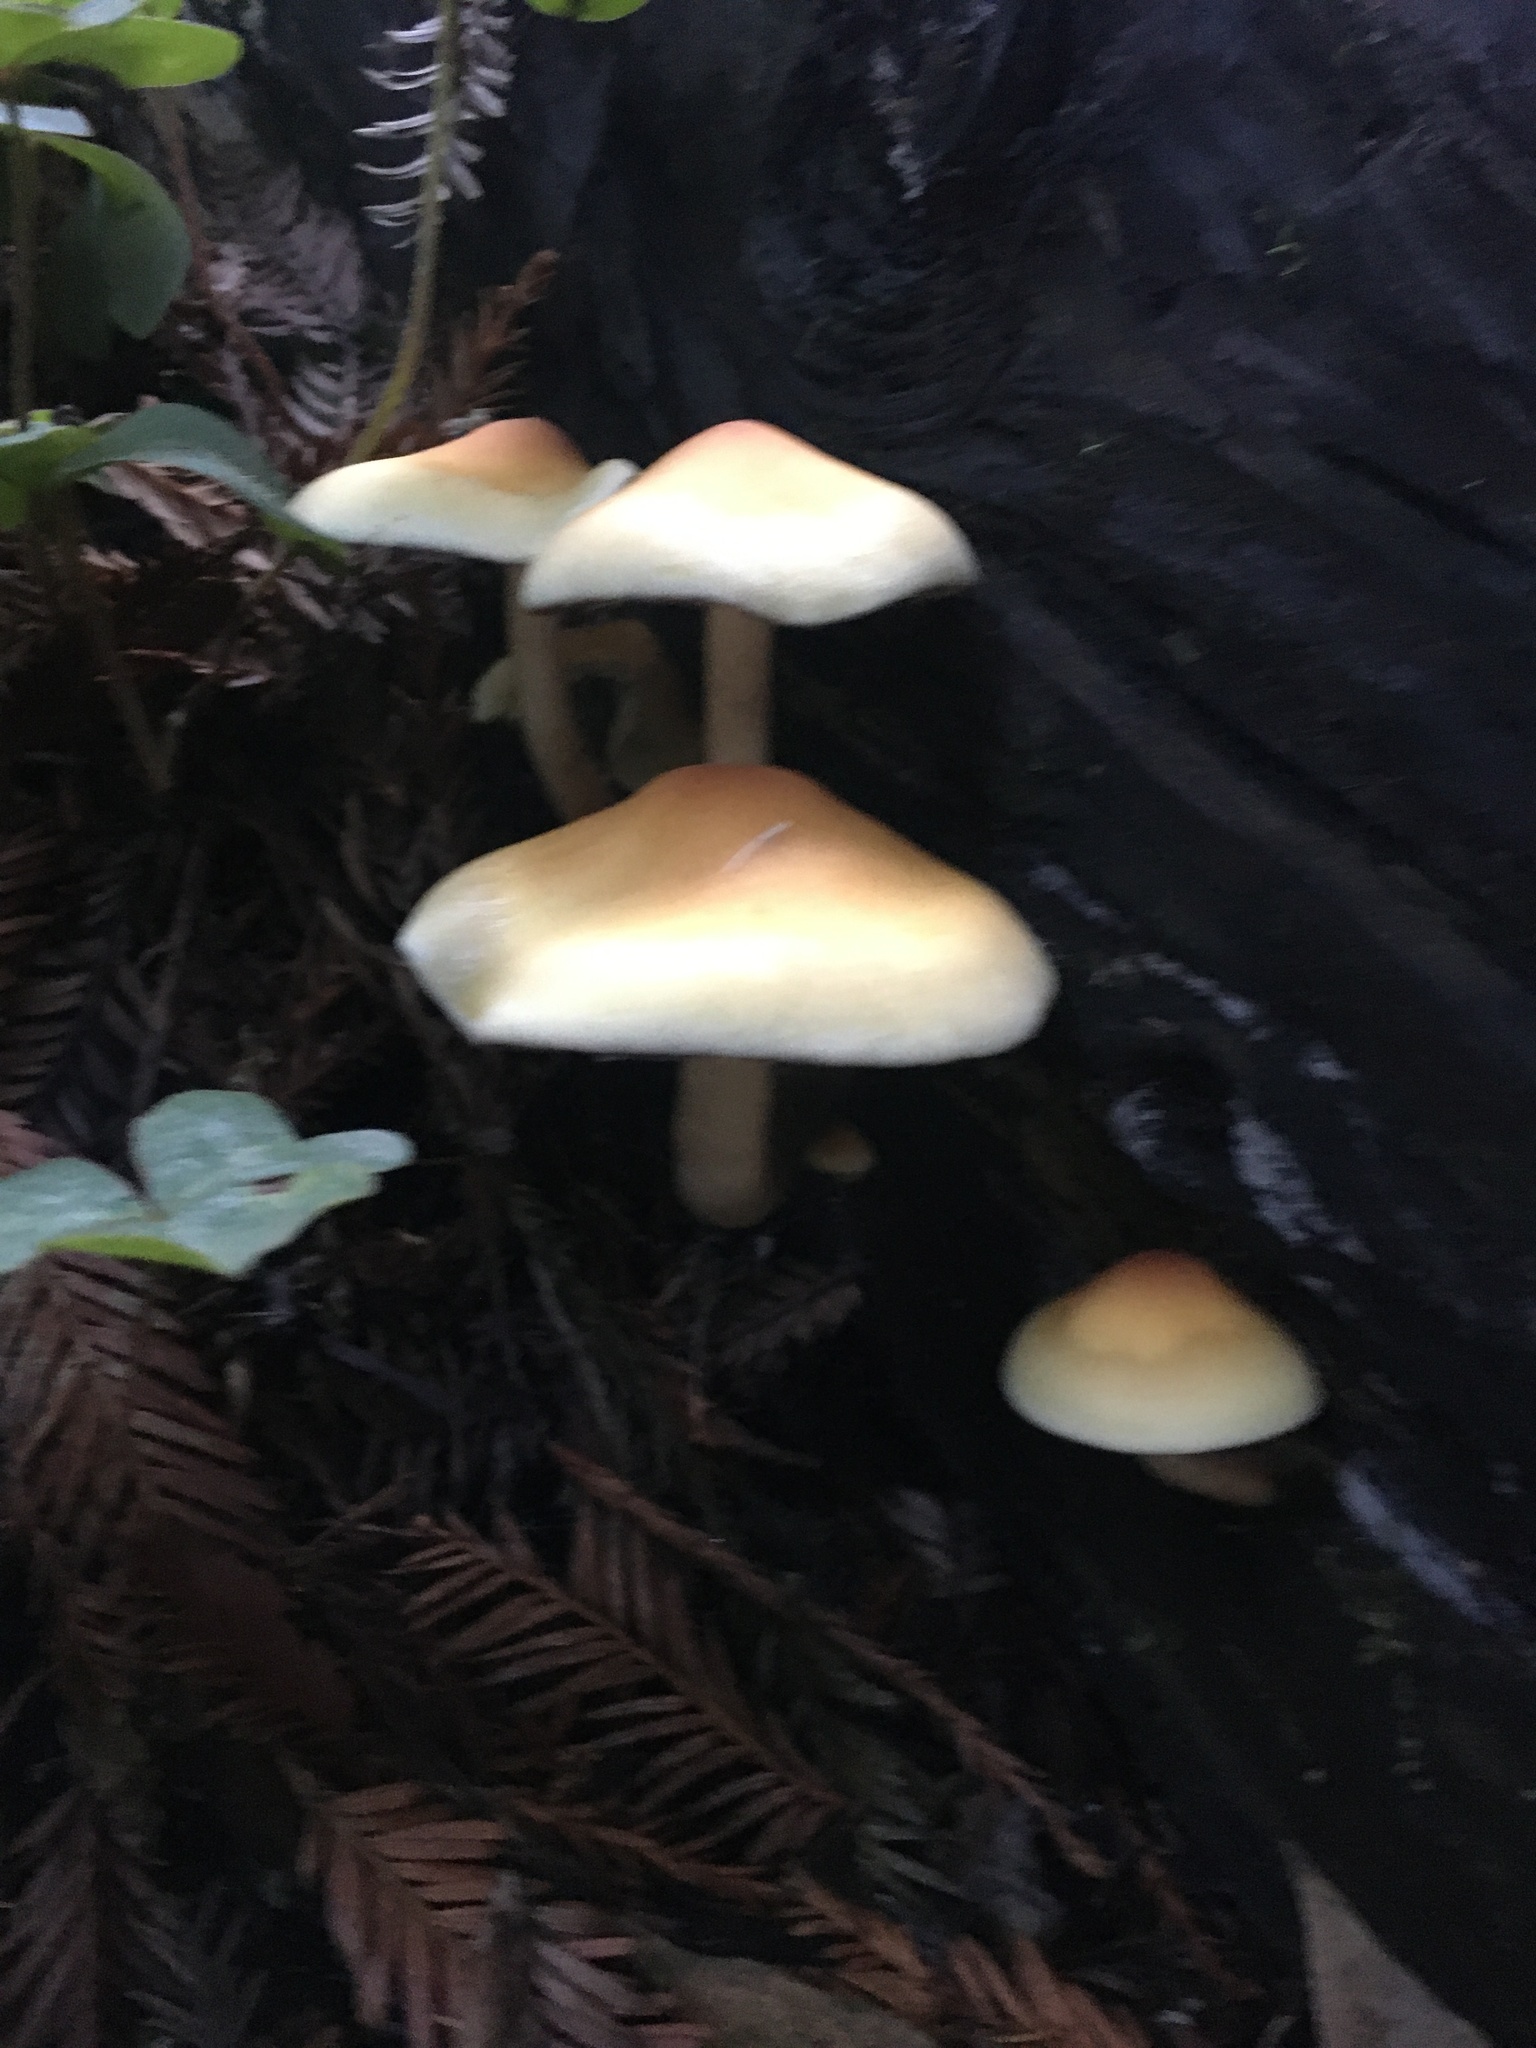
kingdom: Fungi
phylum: Basidiomycota
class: Agaricomycetes
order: Agaricales
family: Strophariaceae
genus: Hypholoma
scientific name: Hypholoma capnoides
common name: Conifer tuft
